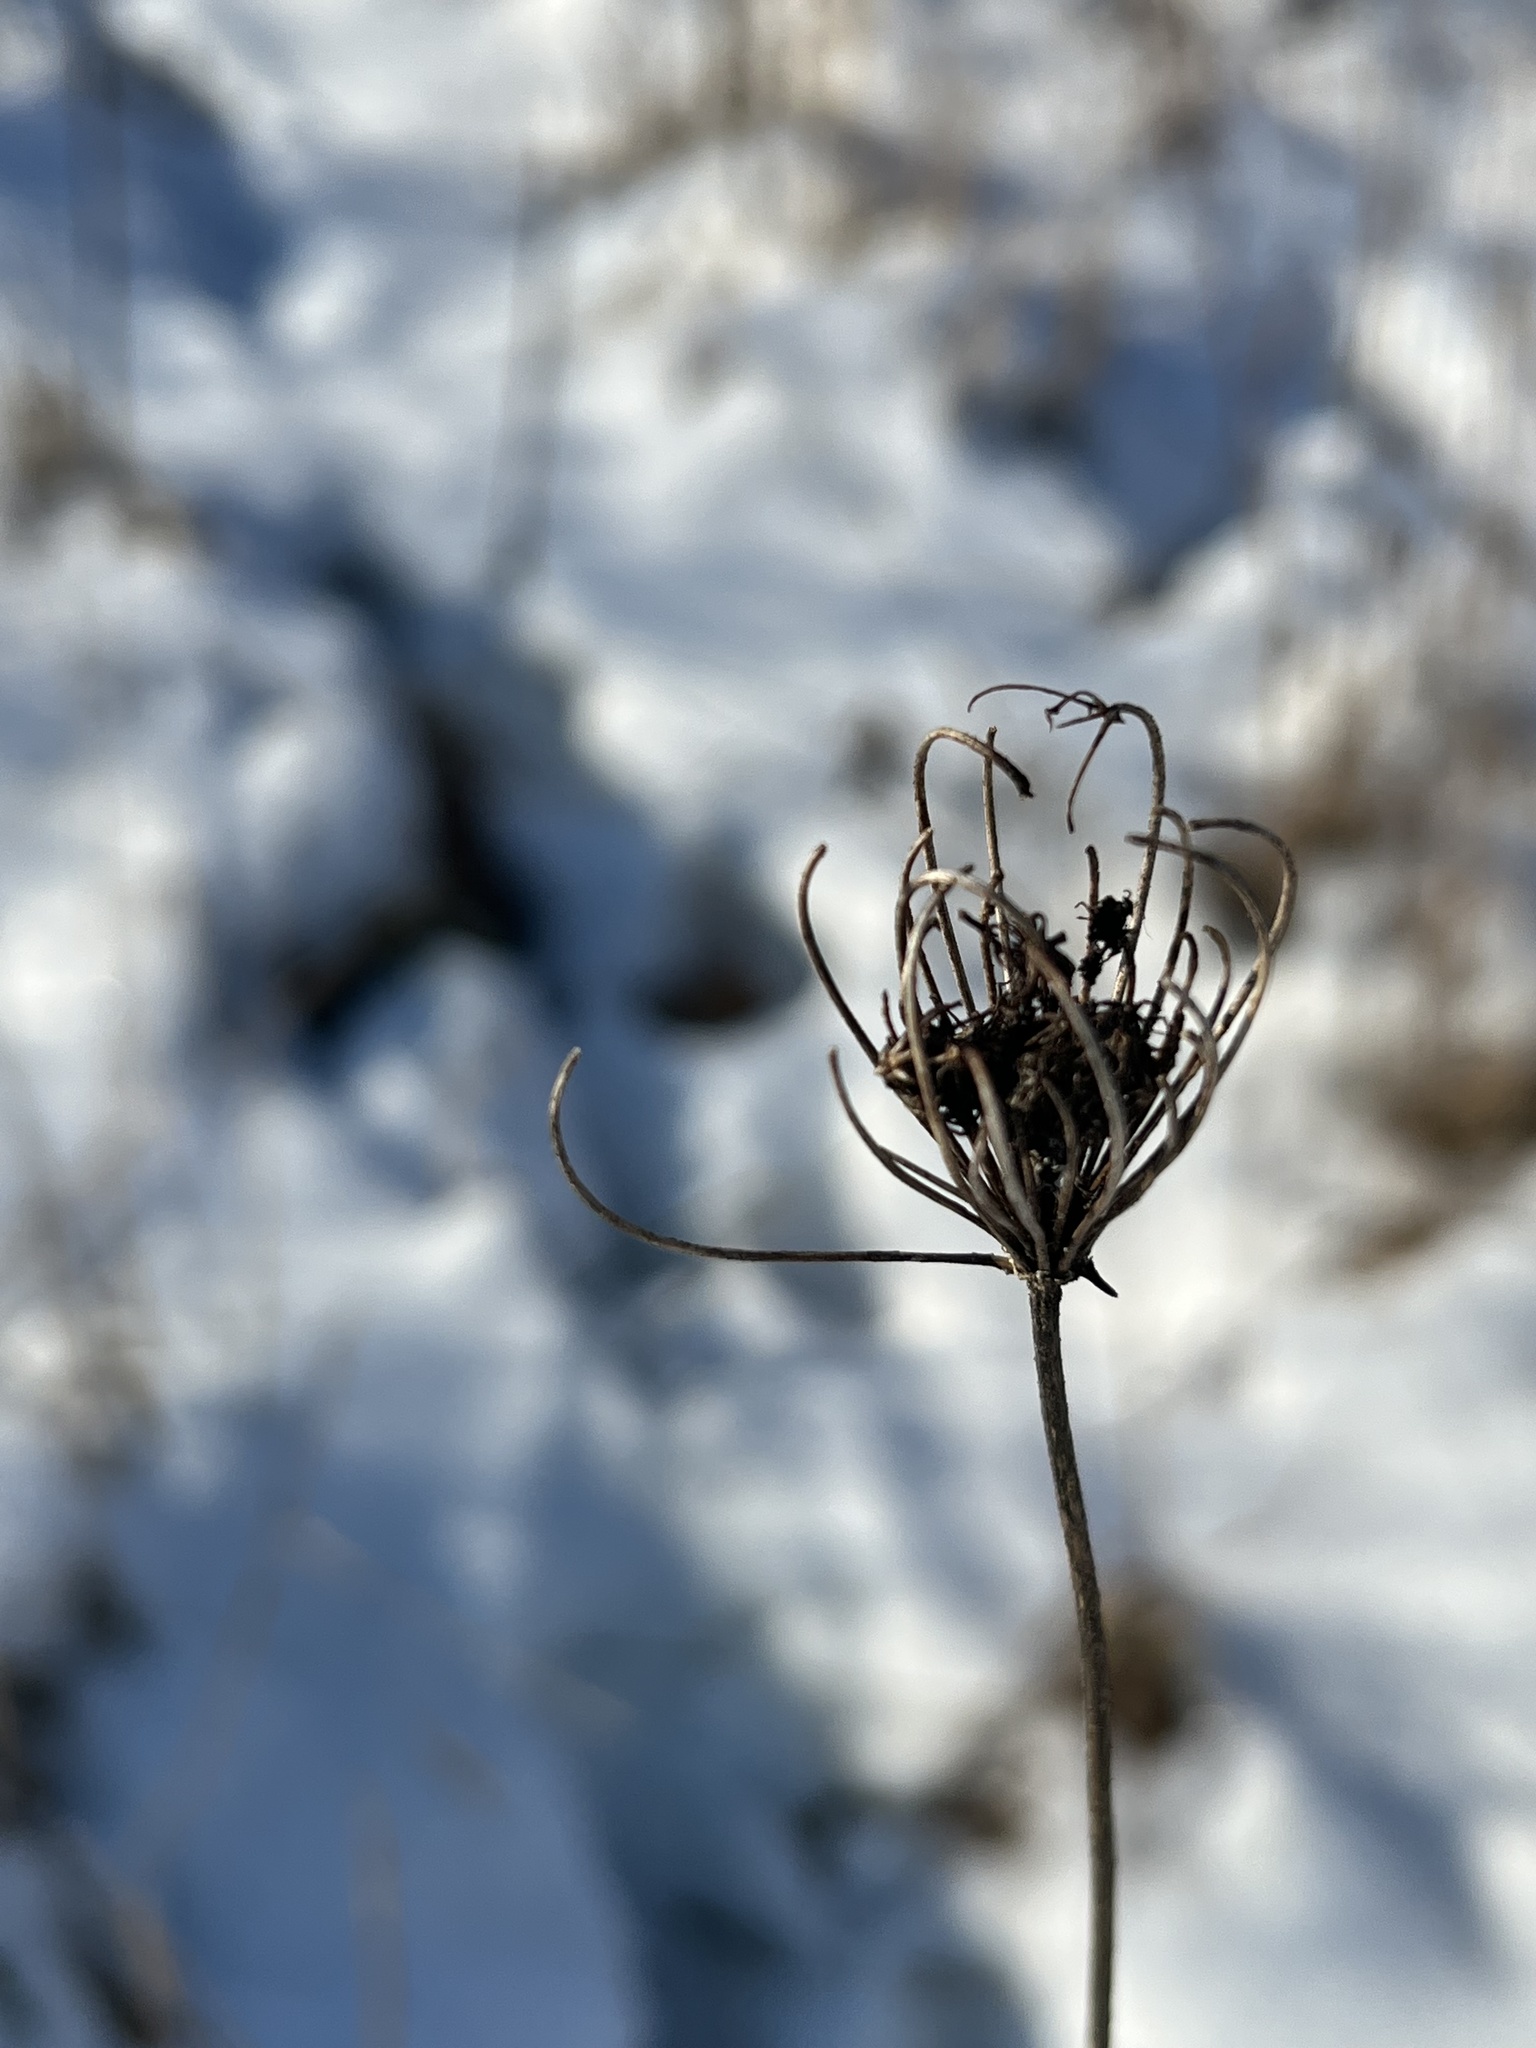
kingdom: Plantae
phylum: Tracheophyta
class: Magnoliopsida
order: Apiales
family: Apiaceae
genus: Daucus
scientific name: Daucus carota
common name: Wild carrot
